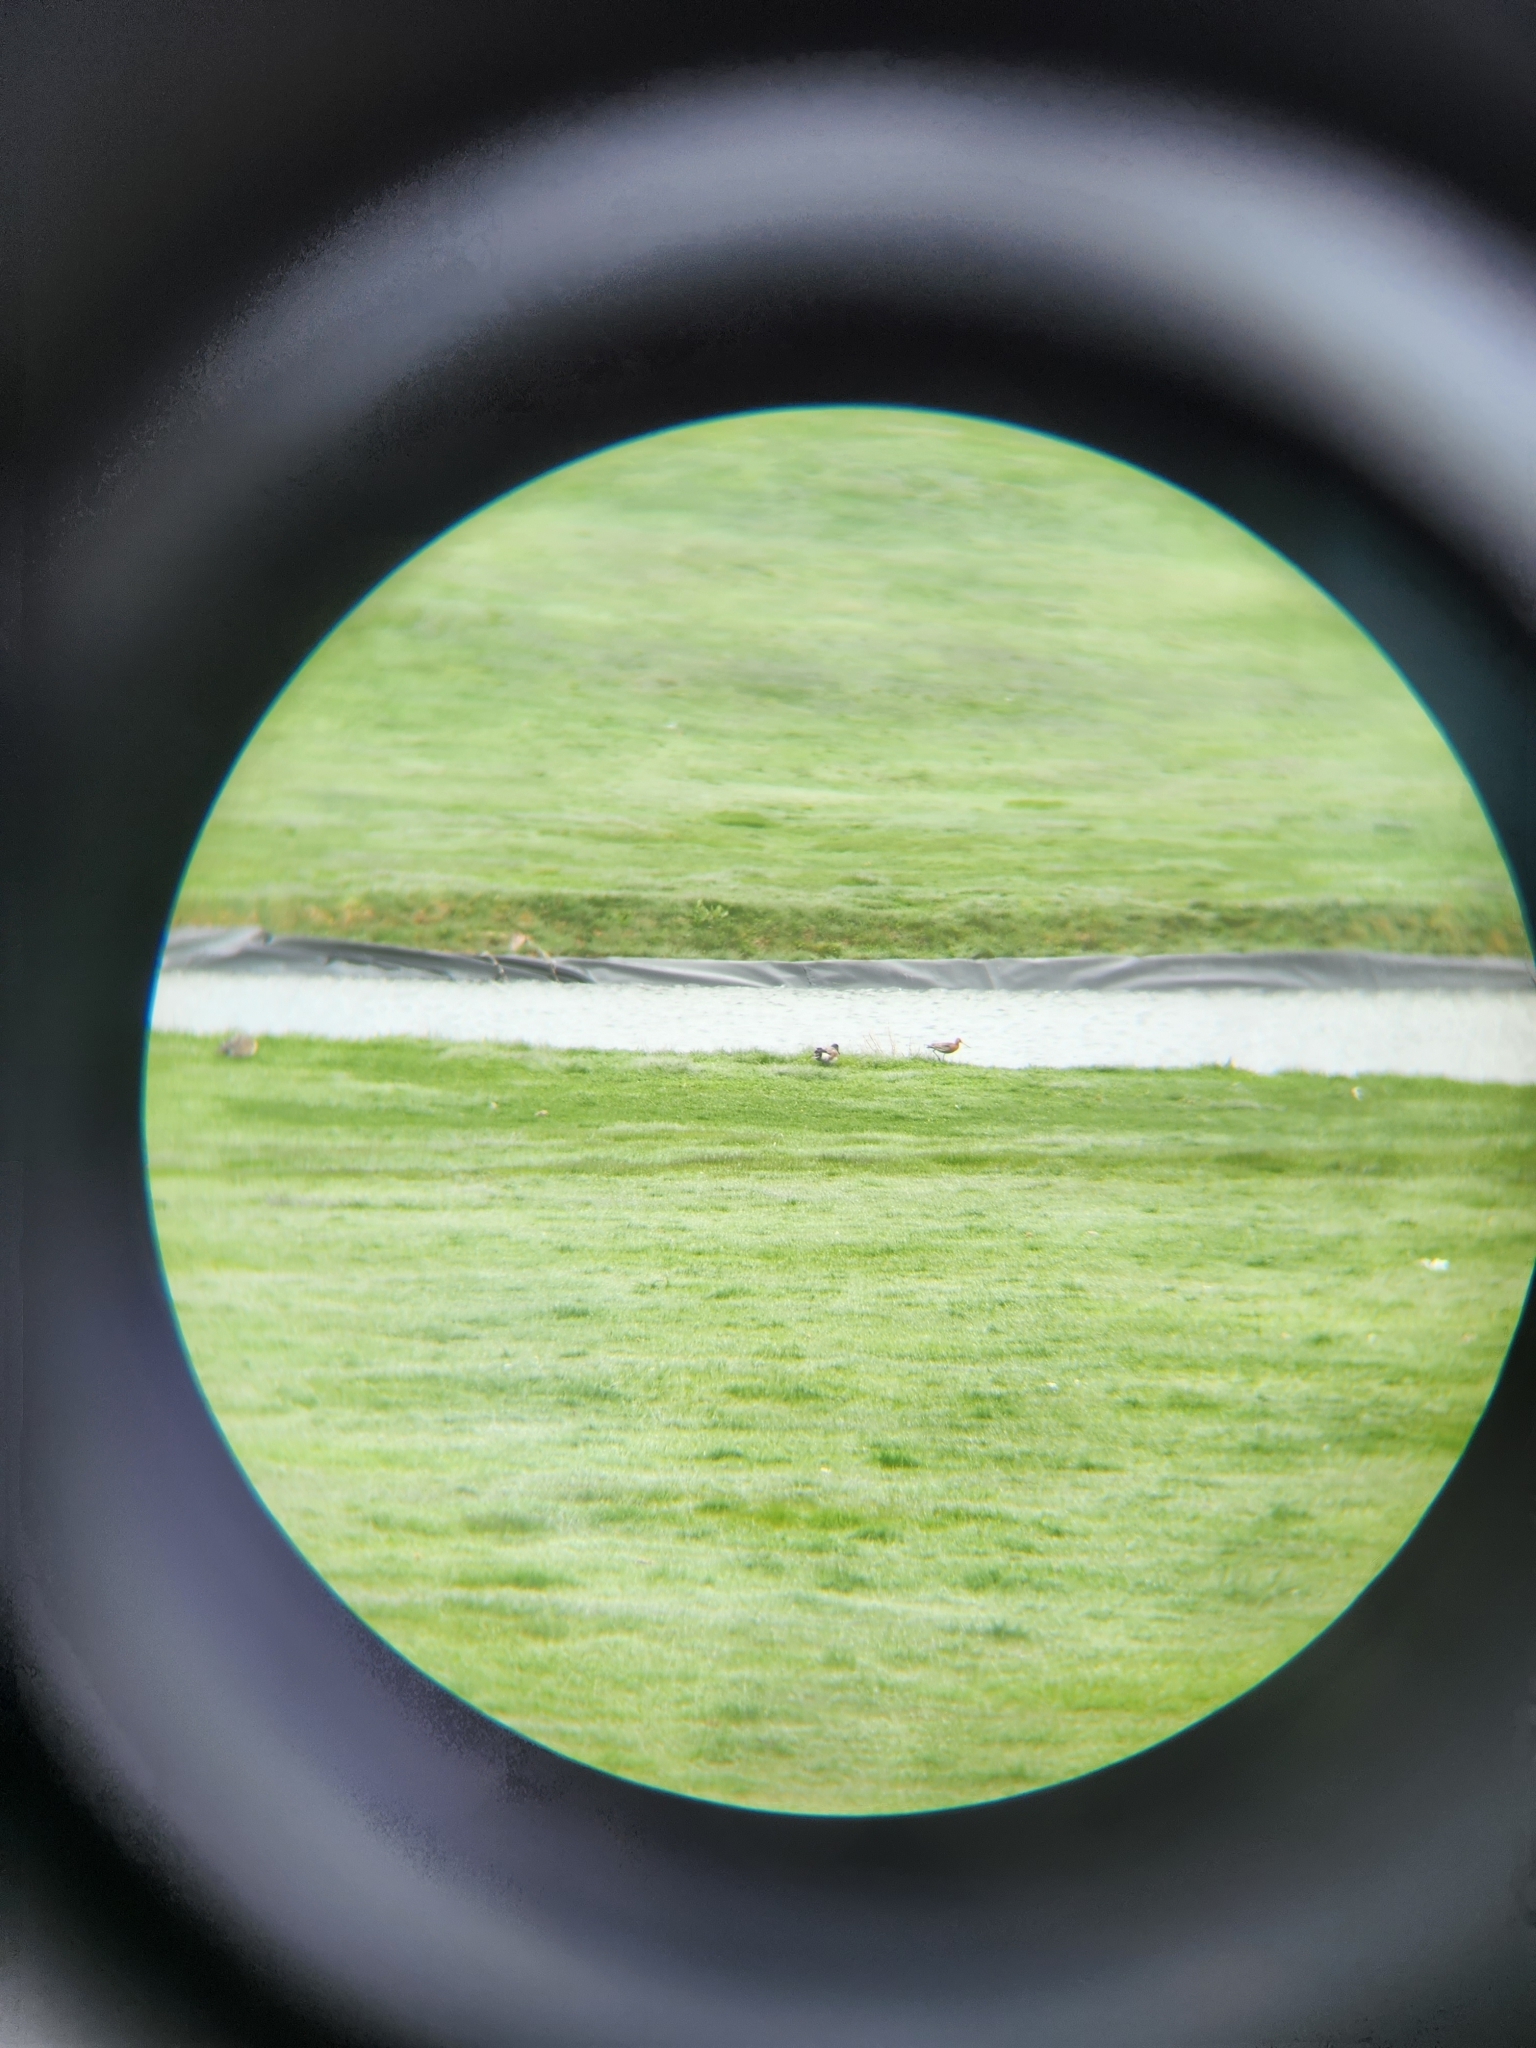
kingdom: Animalia
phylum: Chordata
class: Aves
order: Charadriiformes
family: Scolopacidae
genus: Limosa
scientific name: Limosa limosa
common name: Black-tailed godwit
